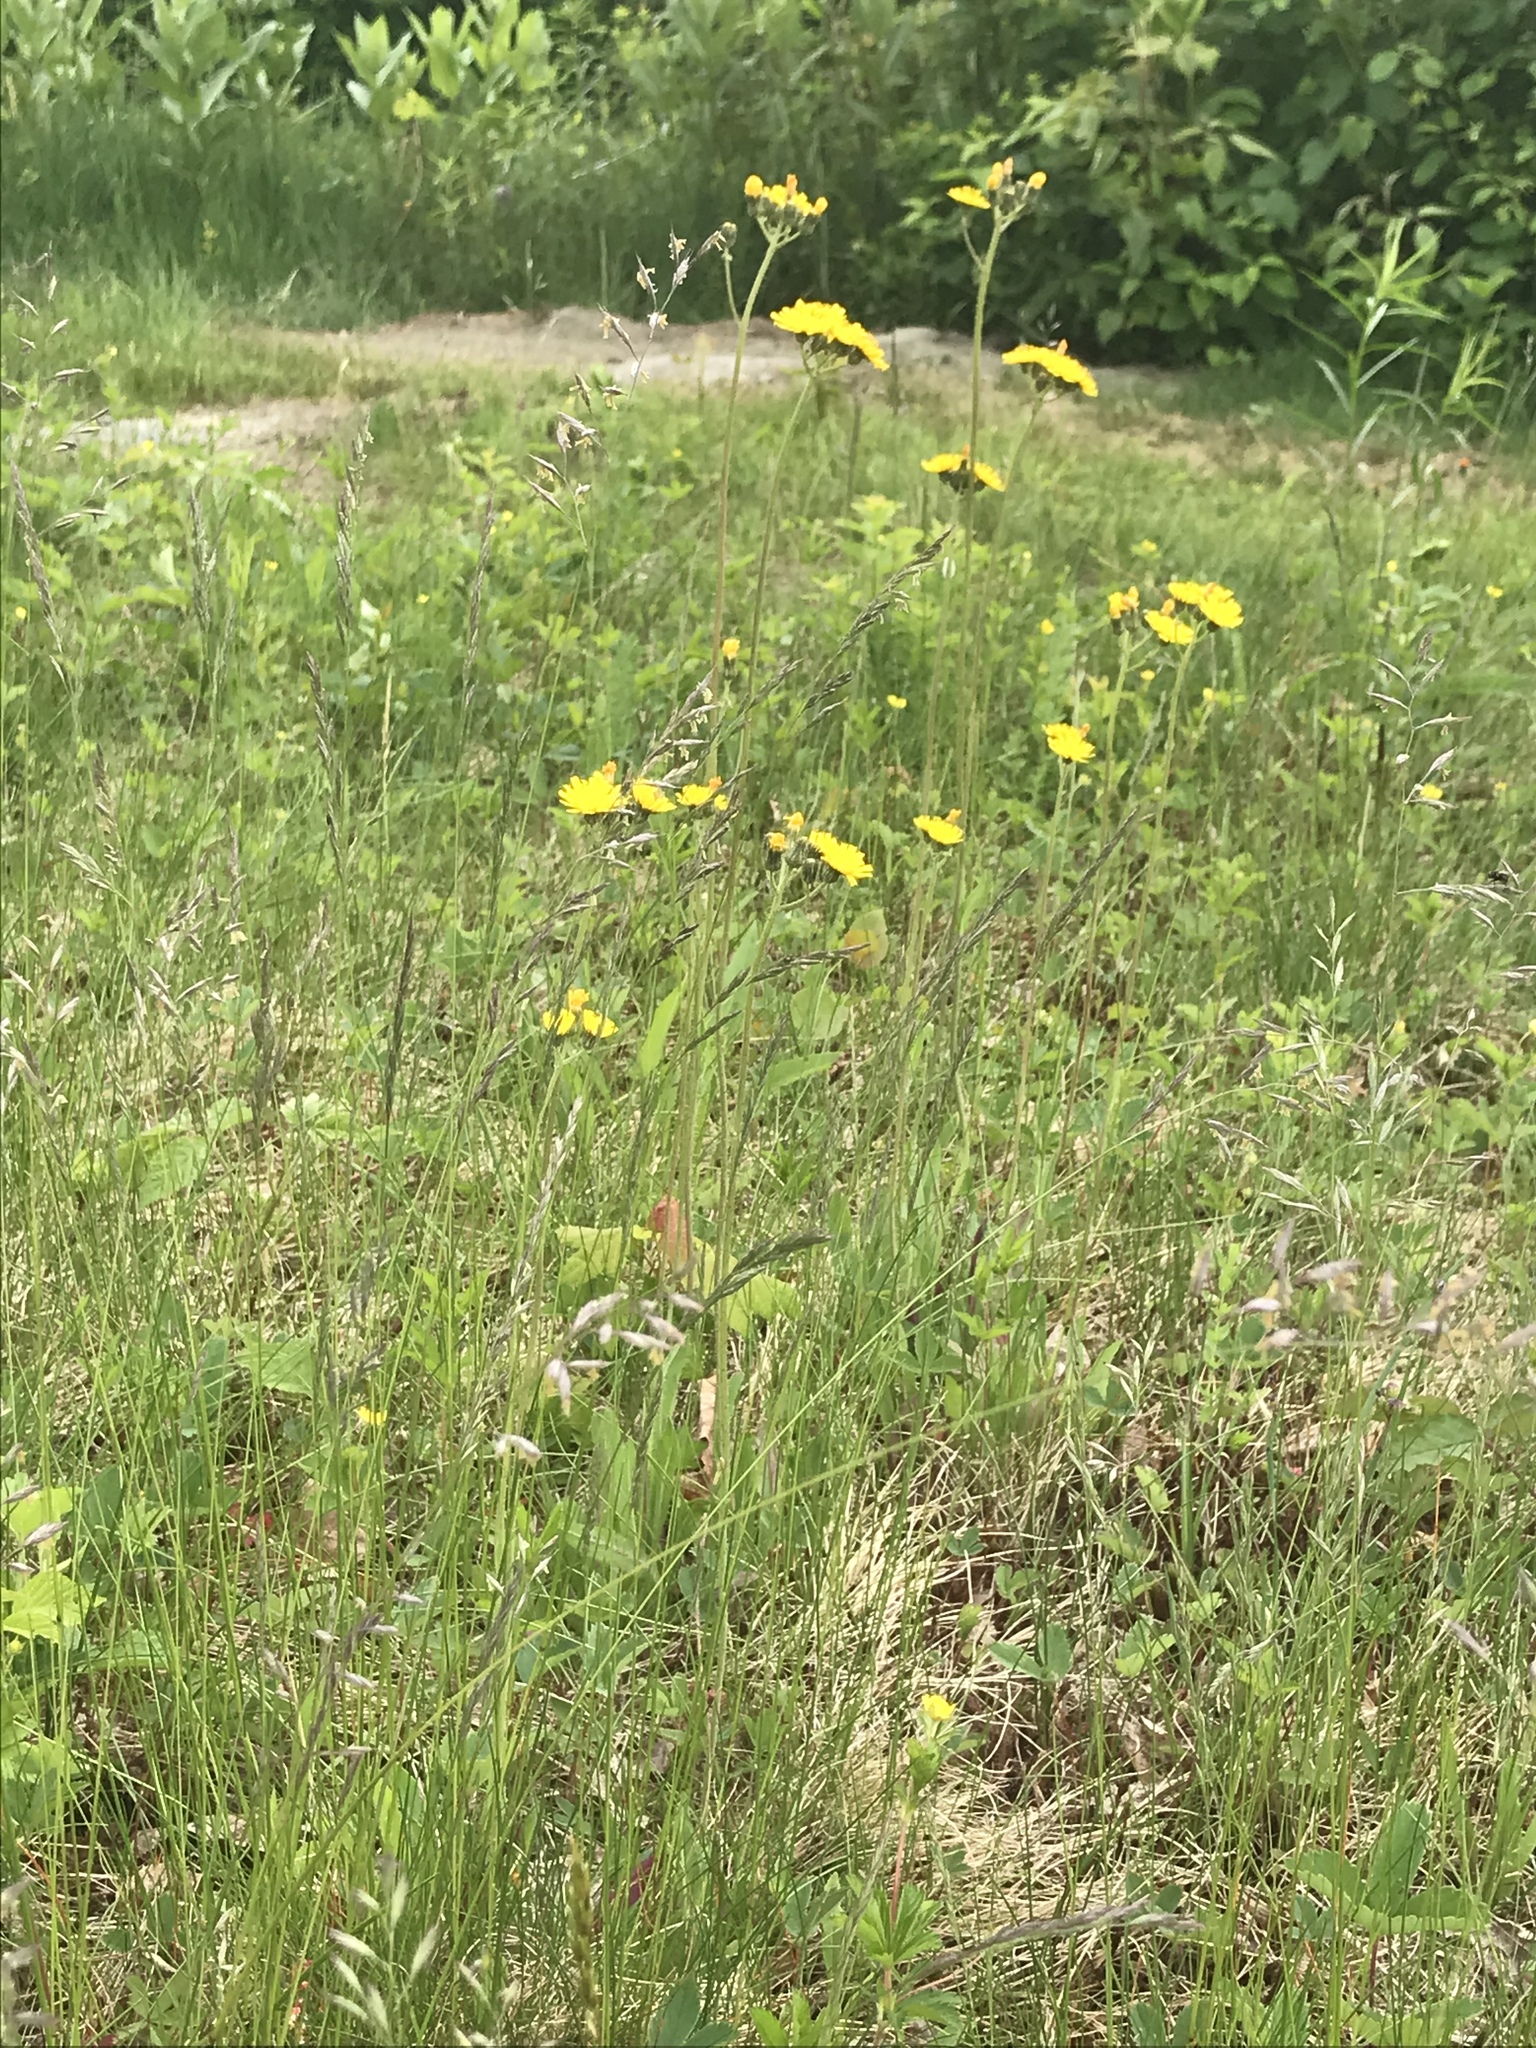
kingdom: Plantae
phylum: Tracheophyta
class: Magnoliopsida
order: Asterales
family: Asteraceae
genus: Pilosella
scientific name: Pilosella caespitosa
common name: Yellow fox-and-cubs
